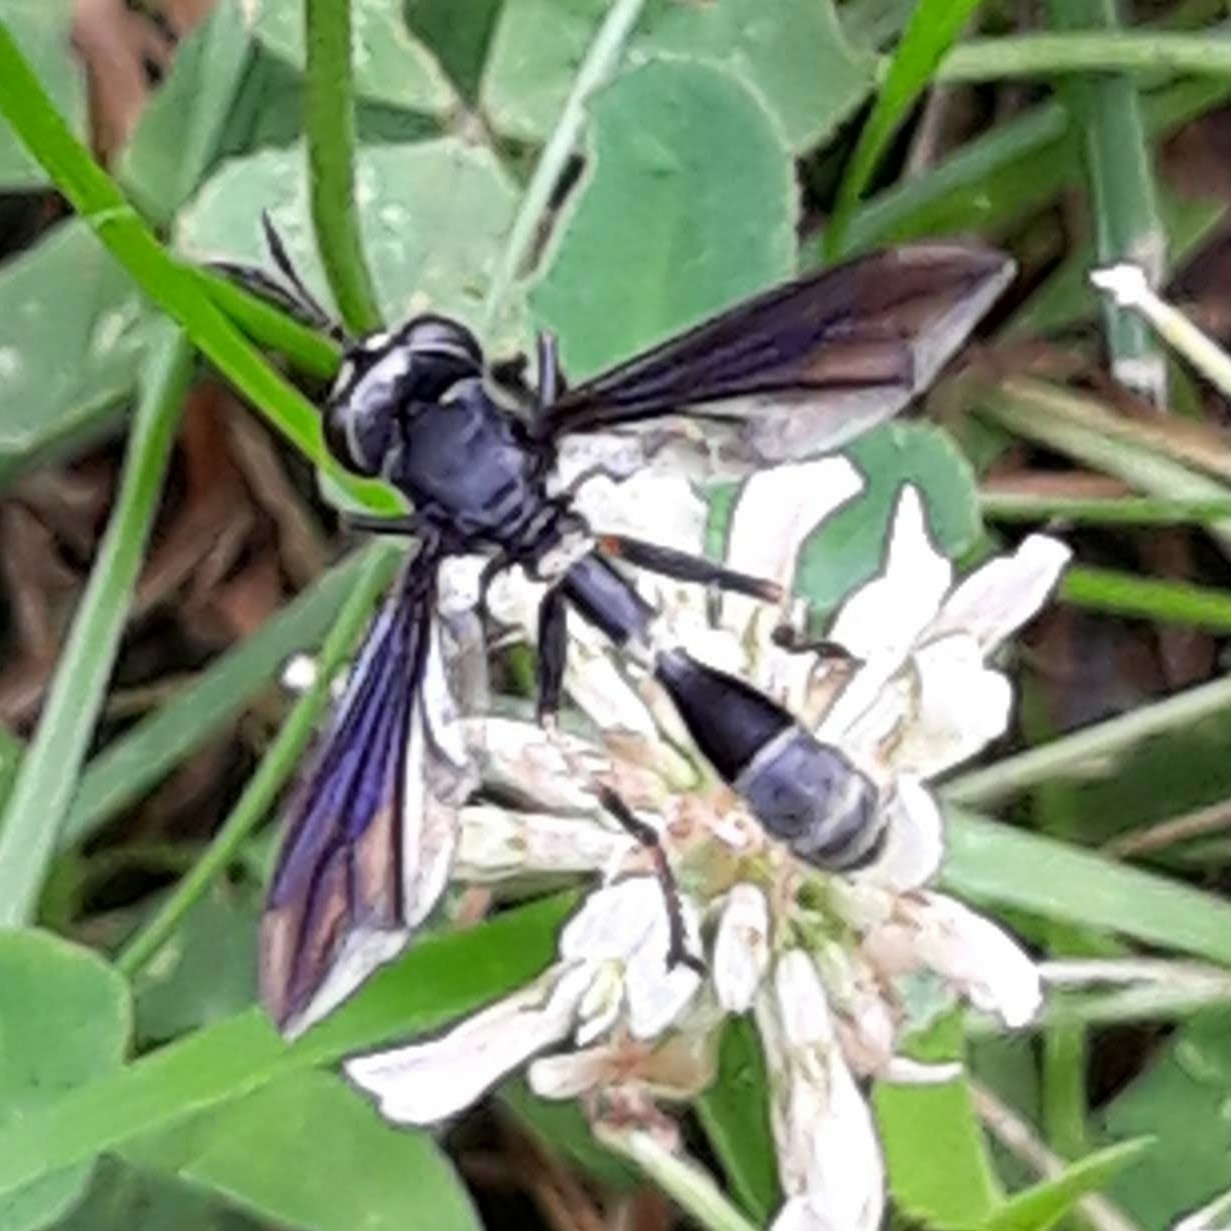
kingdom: Animalia
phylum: Arthropoda
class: Insecta
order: Diptera
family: Conopidae
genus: Physocephala
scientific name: Physocephala tibialis
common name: Common eastern physocephala
